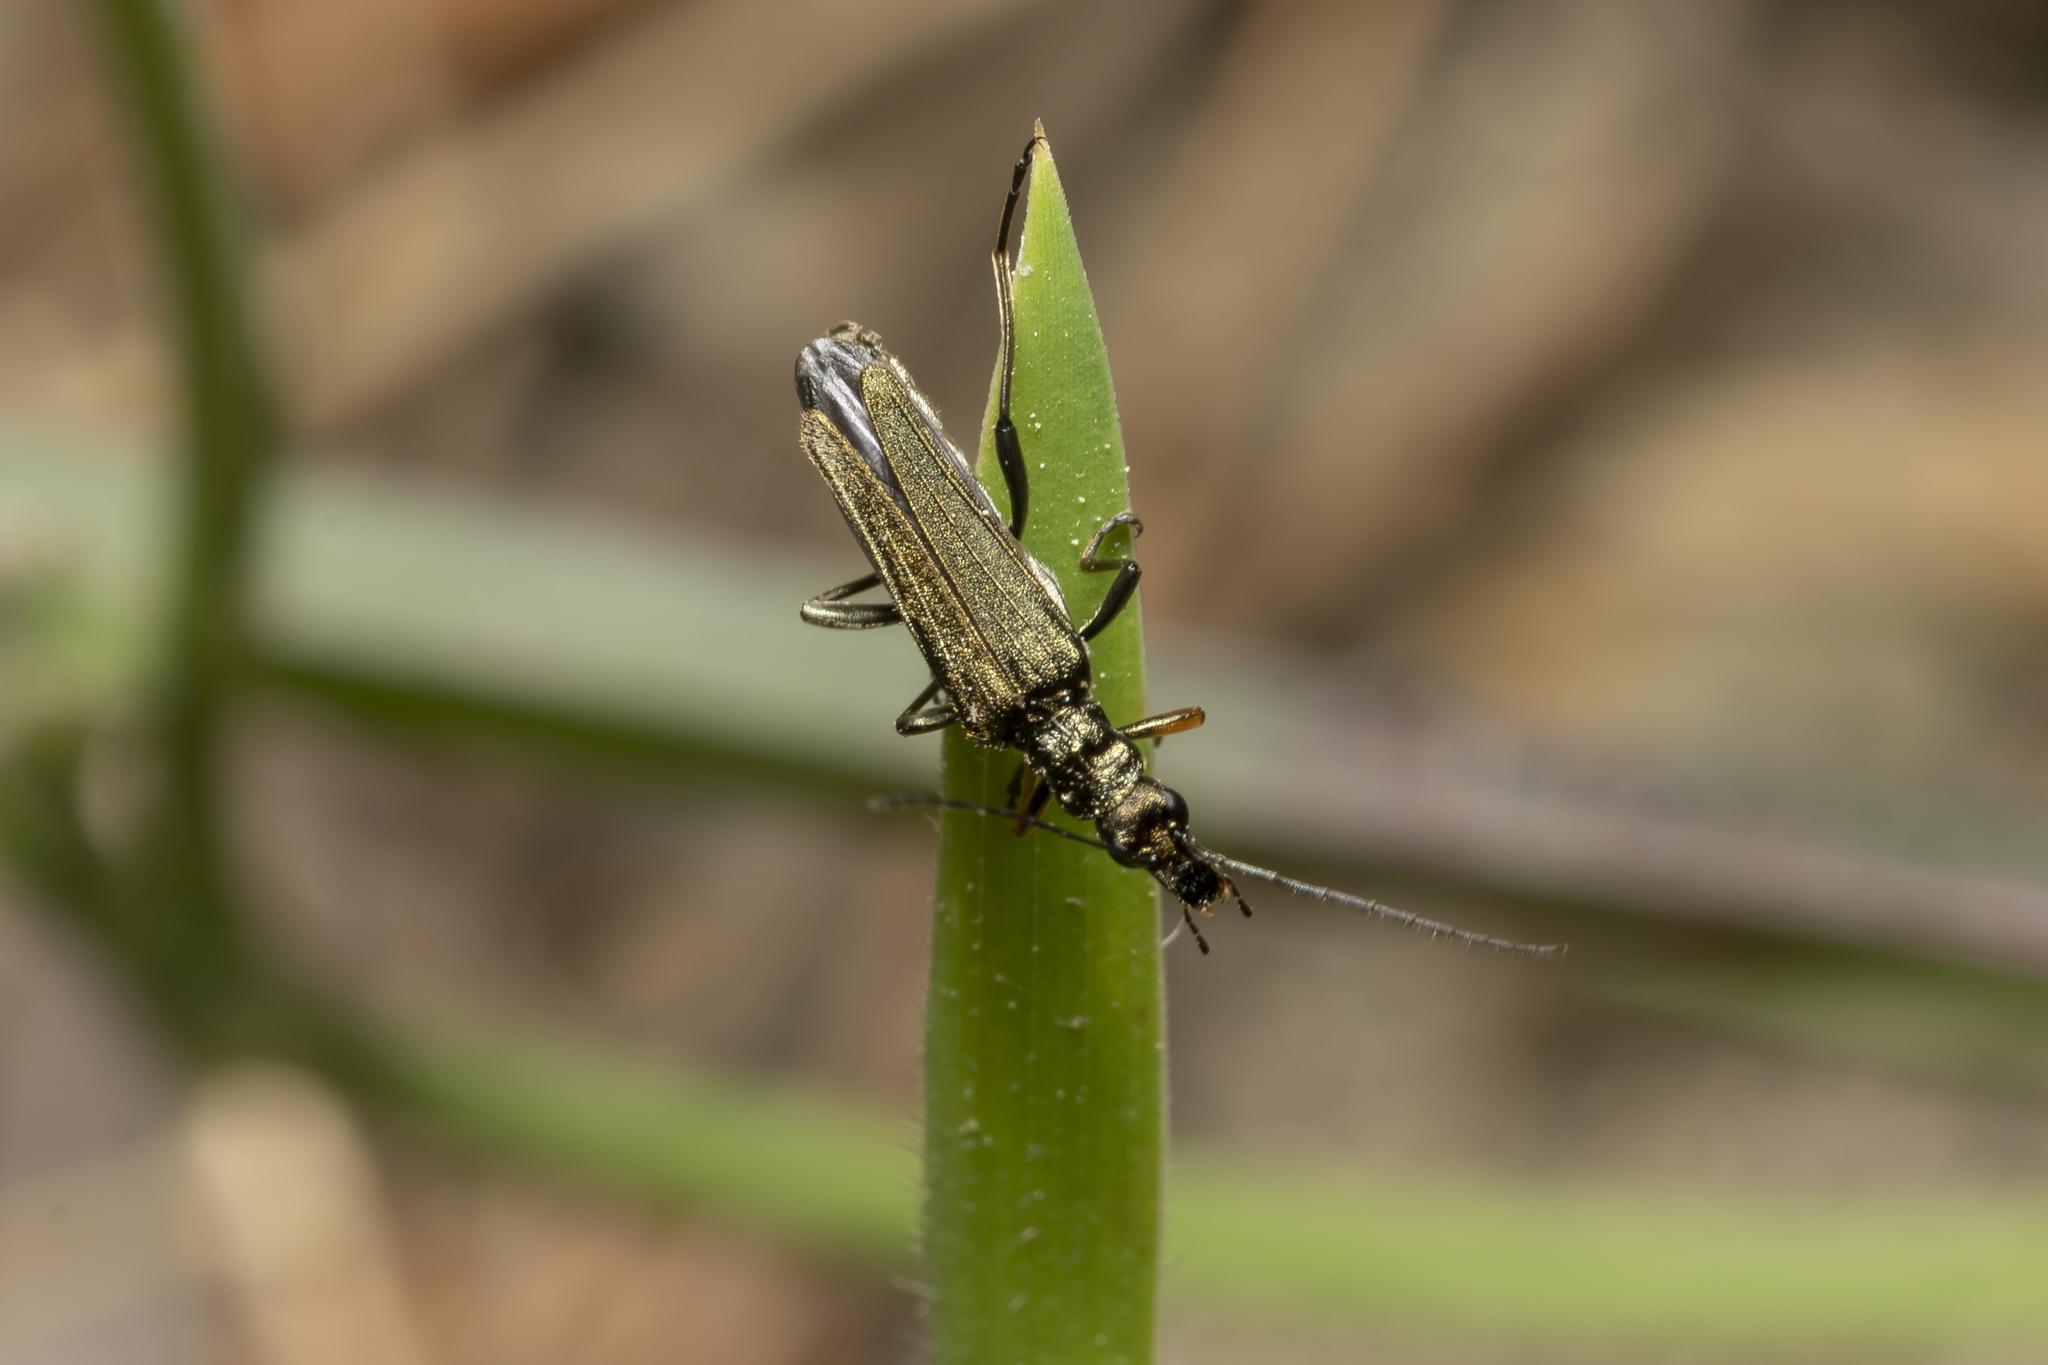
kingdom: Animalia
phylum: Arthropoda
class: Insecta
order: Coleoptera
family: Oedemeridae
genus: Oedemera
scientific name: Oedemera flavipes
